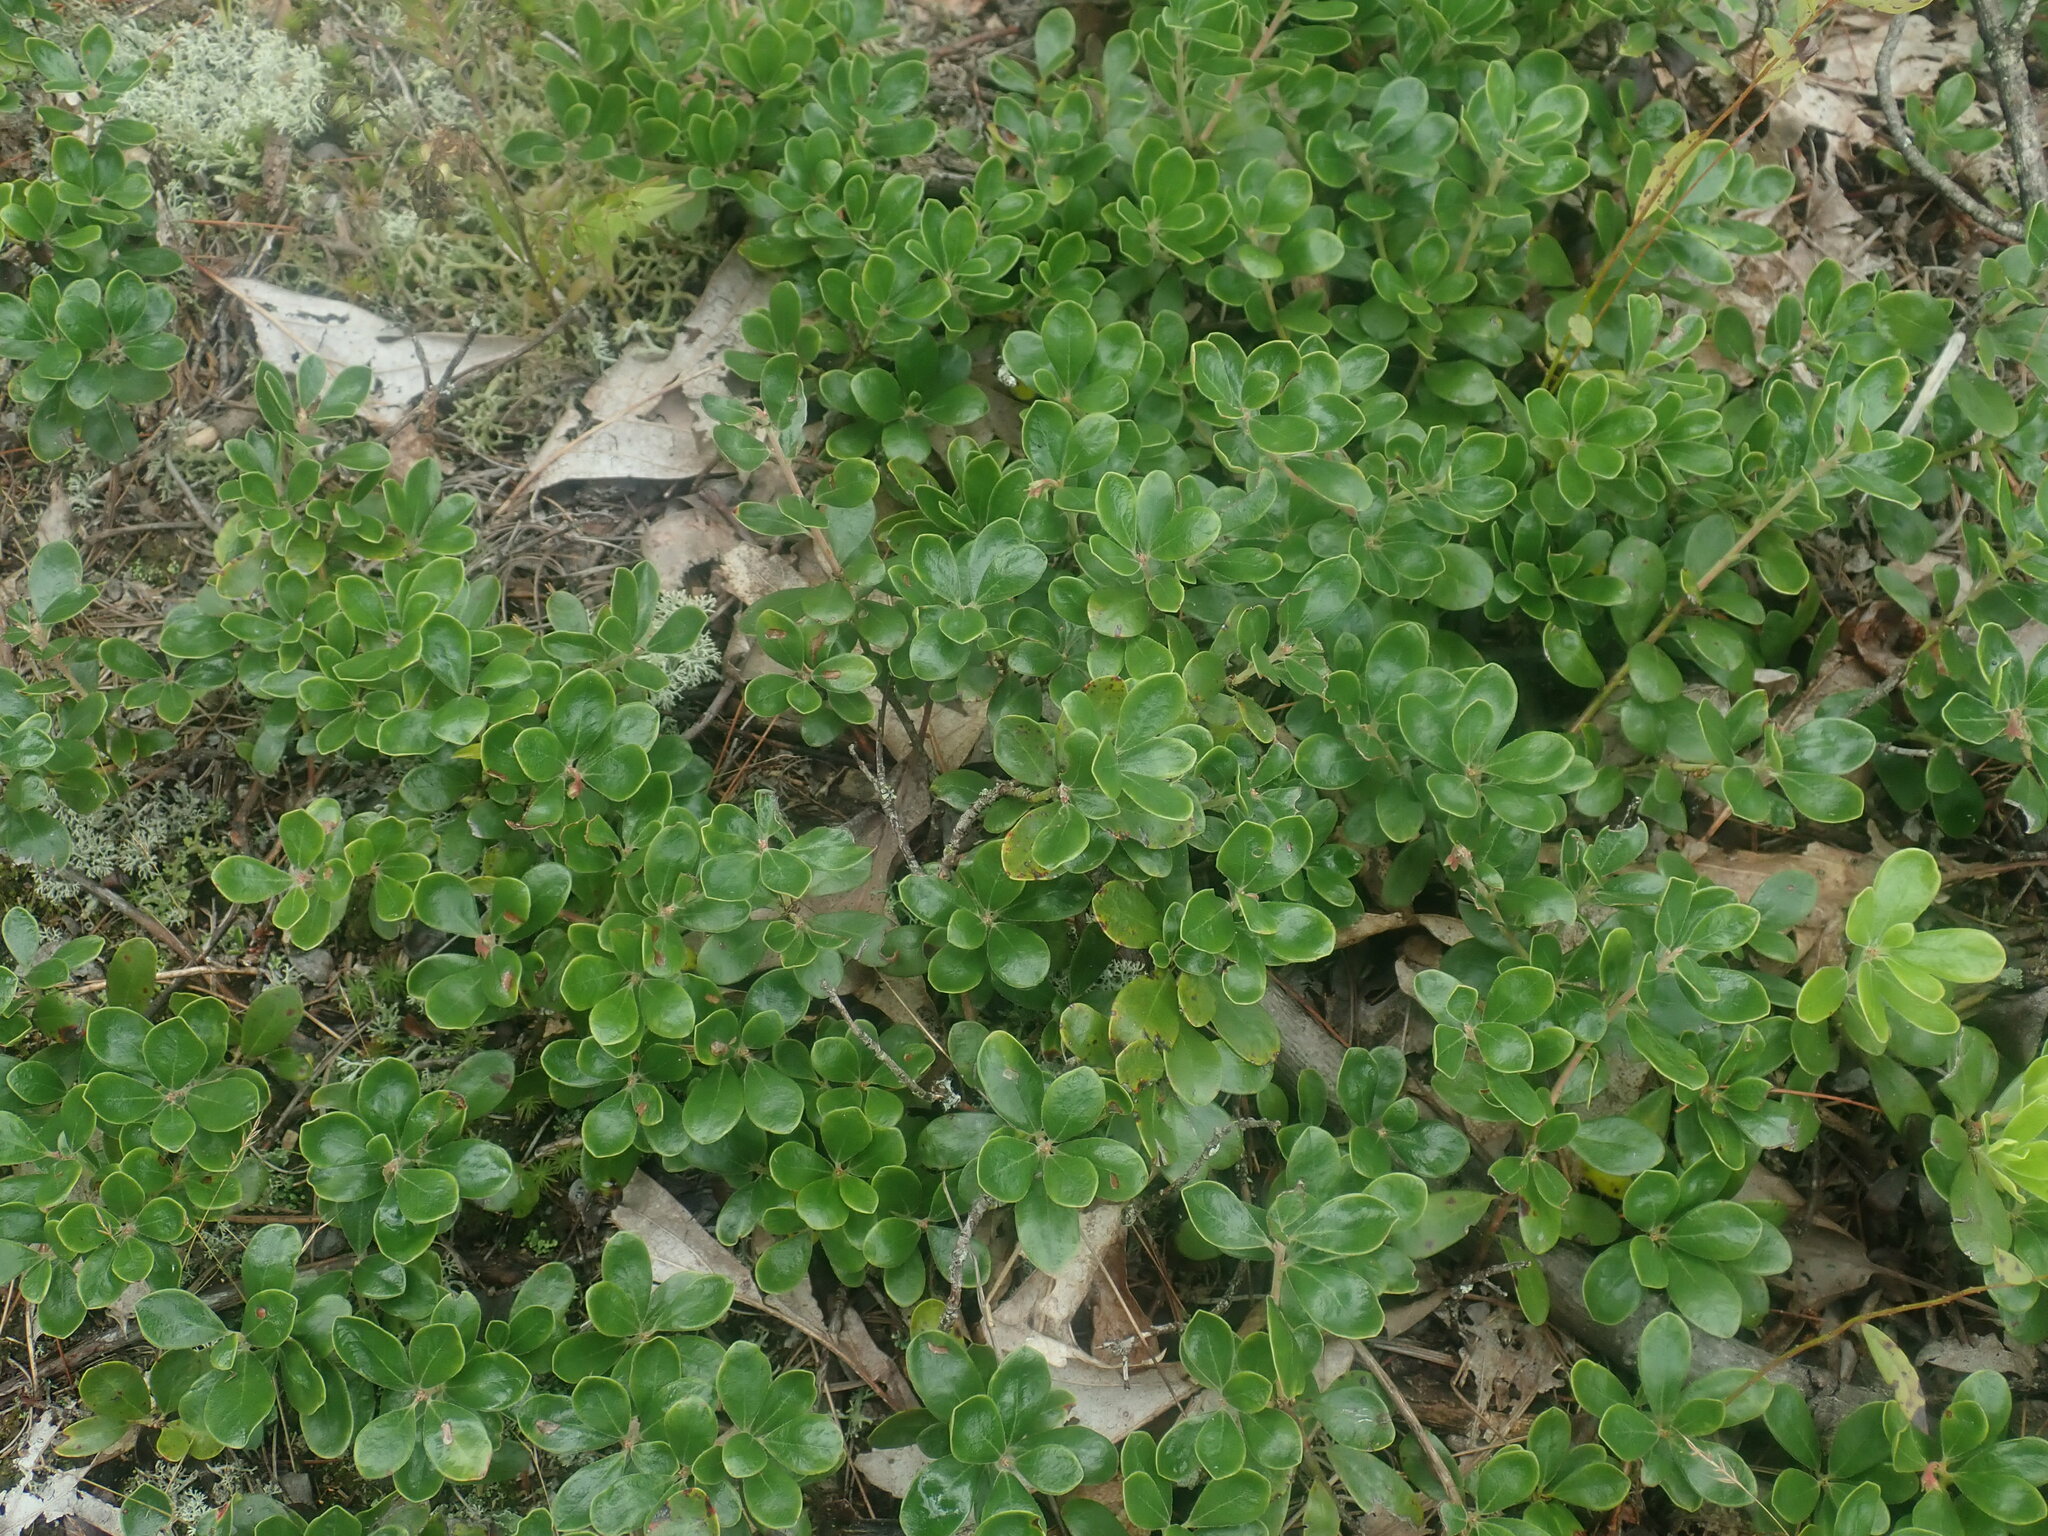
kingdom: Plantae
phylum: Tracheophyta
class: Magnoliopsida
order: Ericales
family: Ericaceae
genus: Arctostaphylos
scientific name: Arctostaphylos uva-ursi
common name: Bearberry
